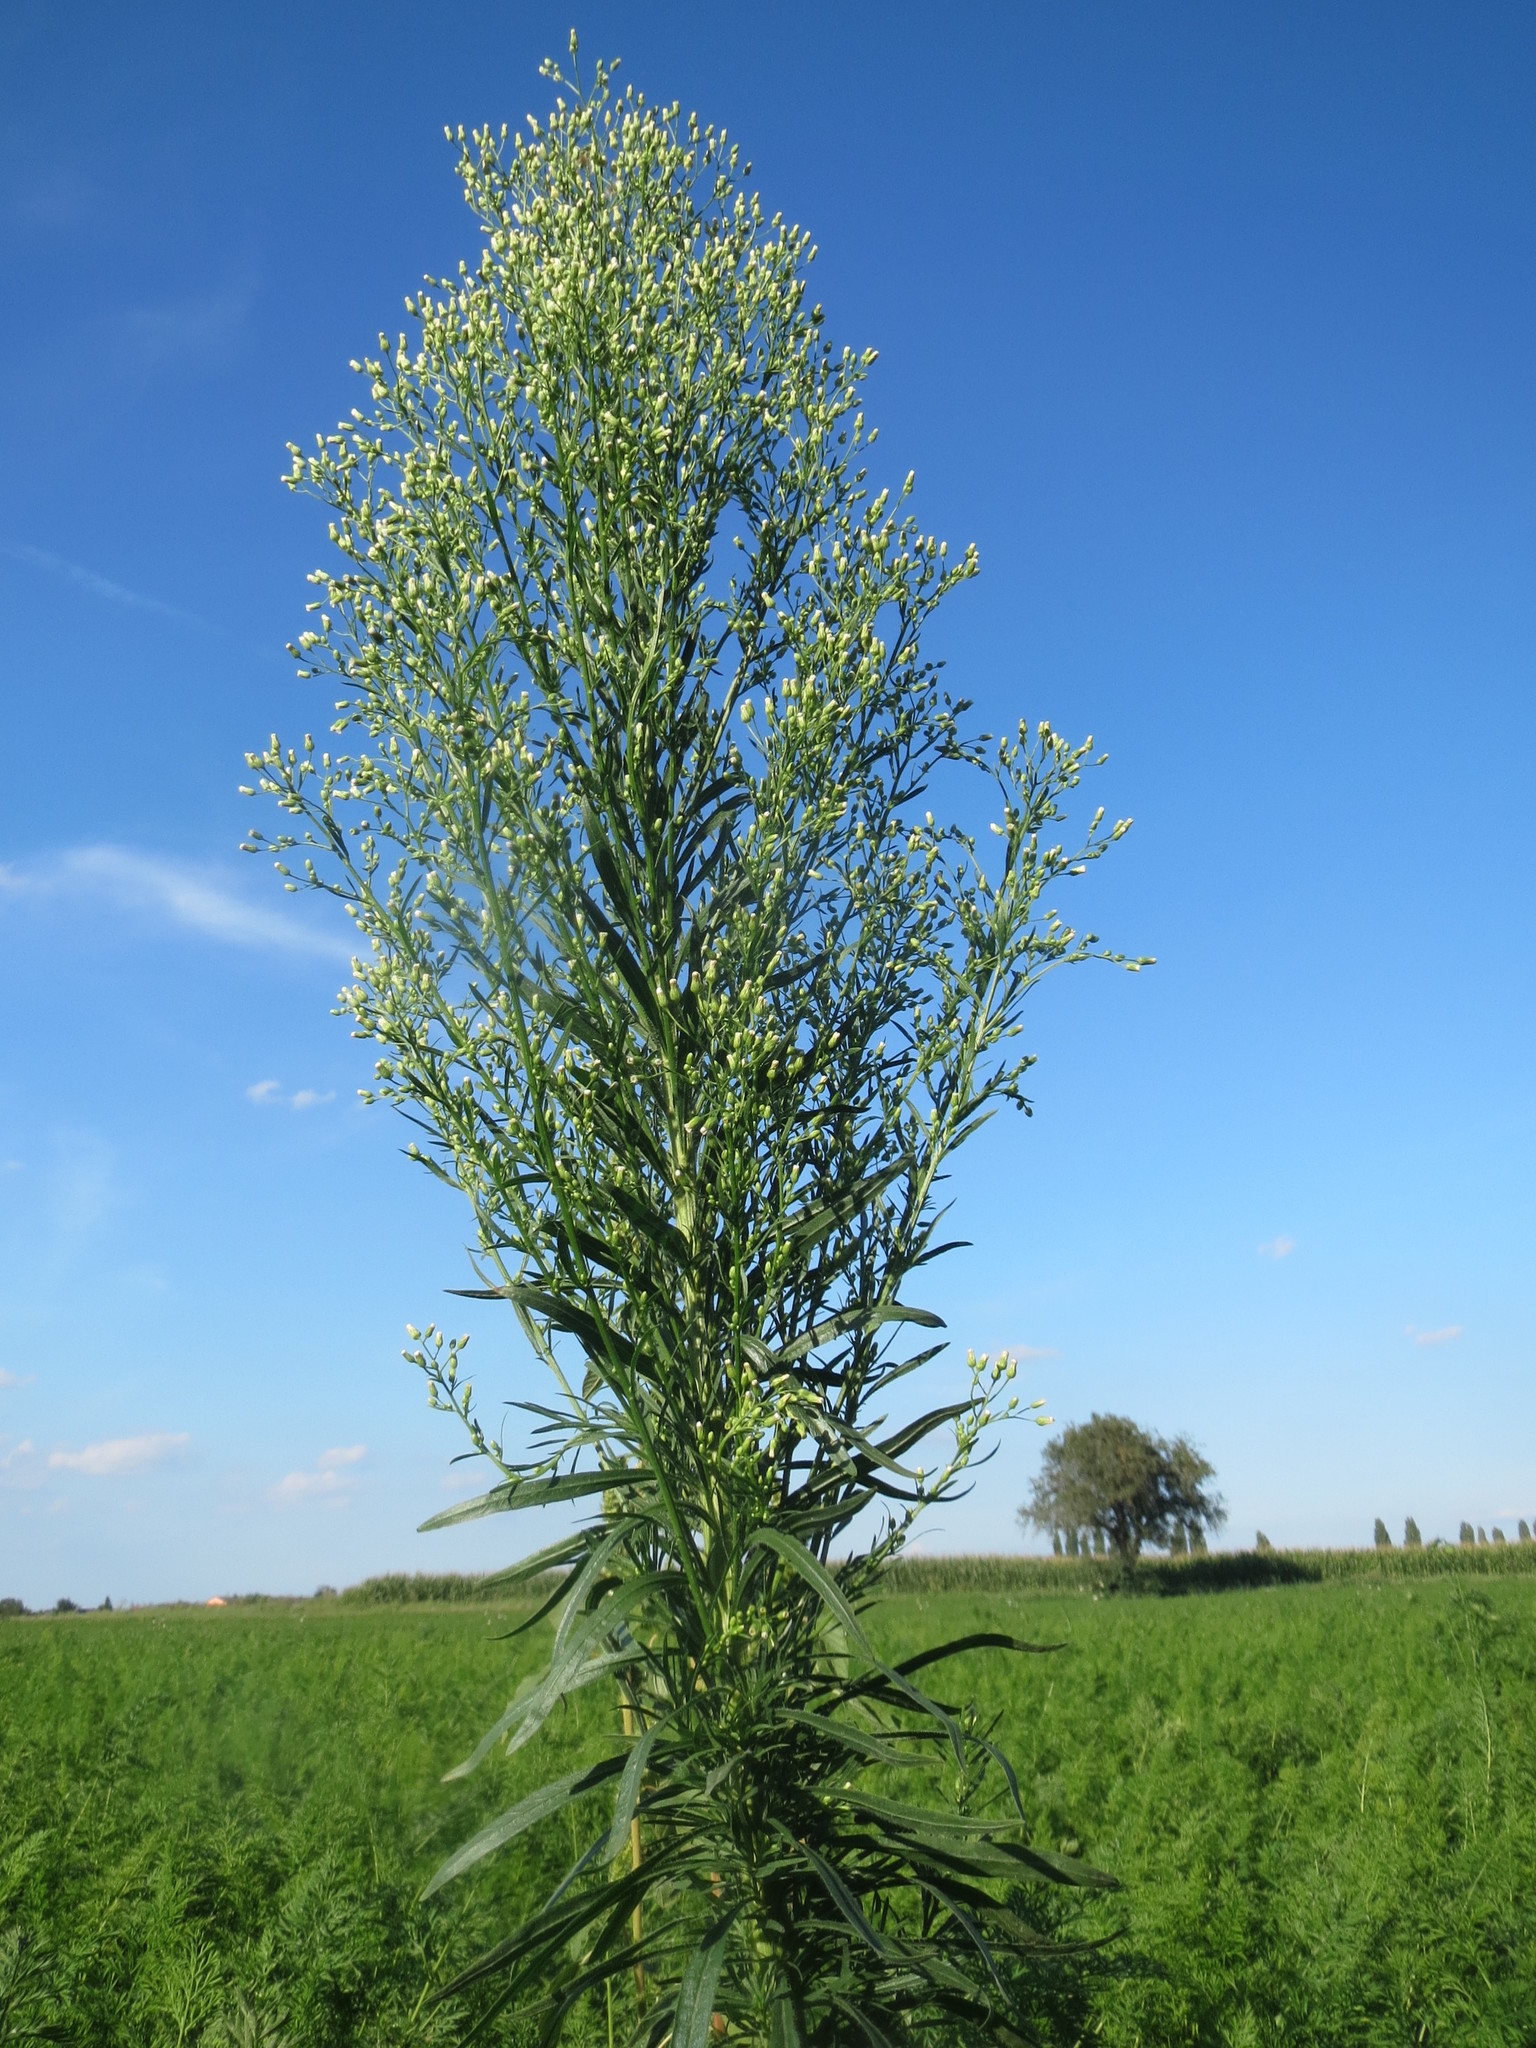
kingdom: Plantae
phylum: Tracheophyta
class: Magnoliopsida
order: Asterales
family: Asteraceae
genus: Erigeron
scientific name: Erigeron canadensis
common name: Canadian fleabane
